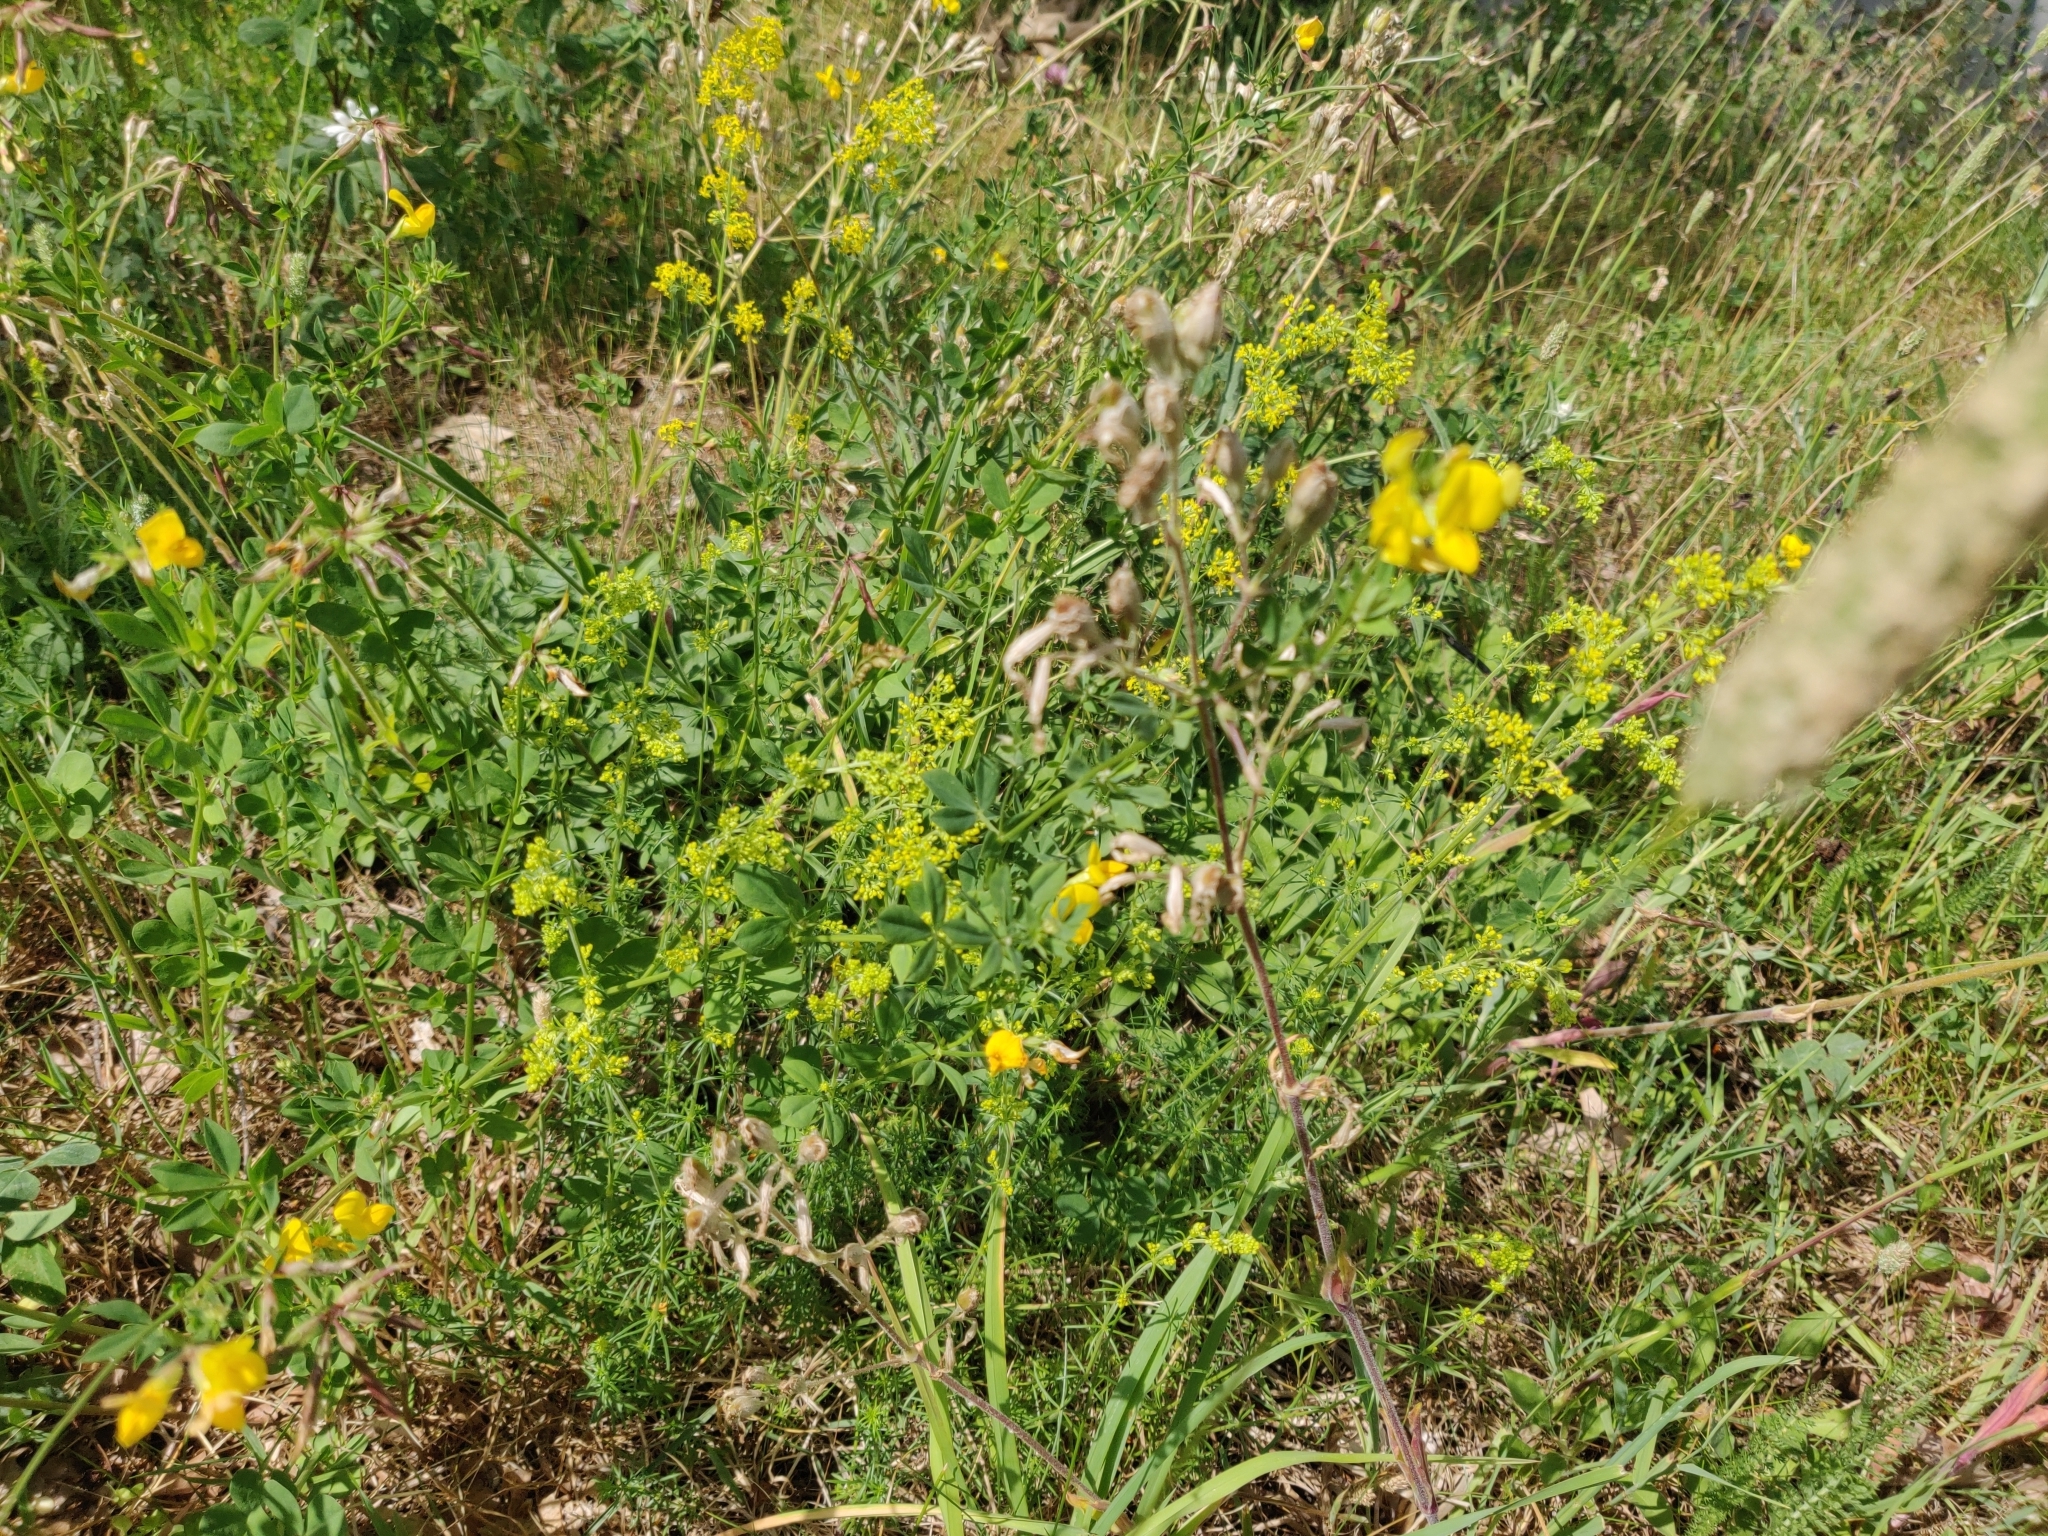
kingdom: Plantae
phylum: Tracheophyta
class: Magnoliopsida
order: Fabales
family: Fabaceae
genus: Lotus
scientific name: Lotus corniculatus
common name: Common bird's-foot-trefoil
